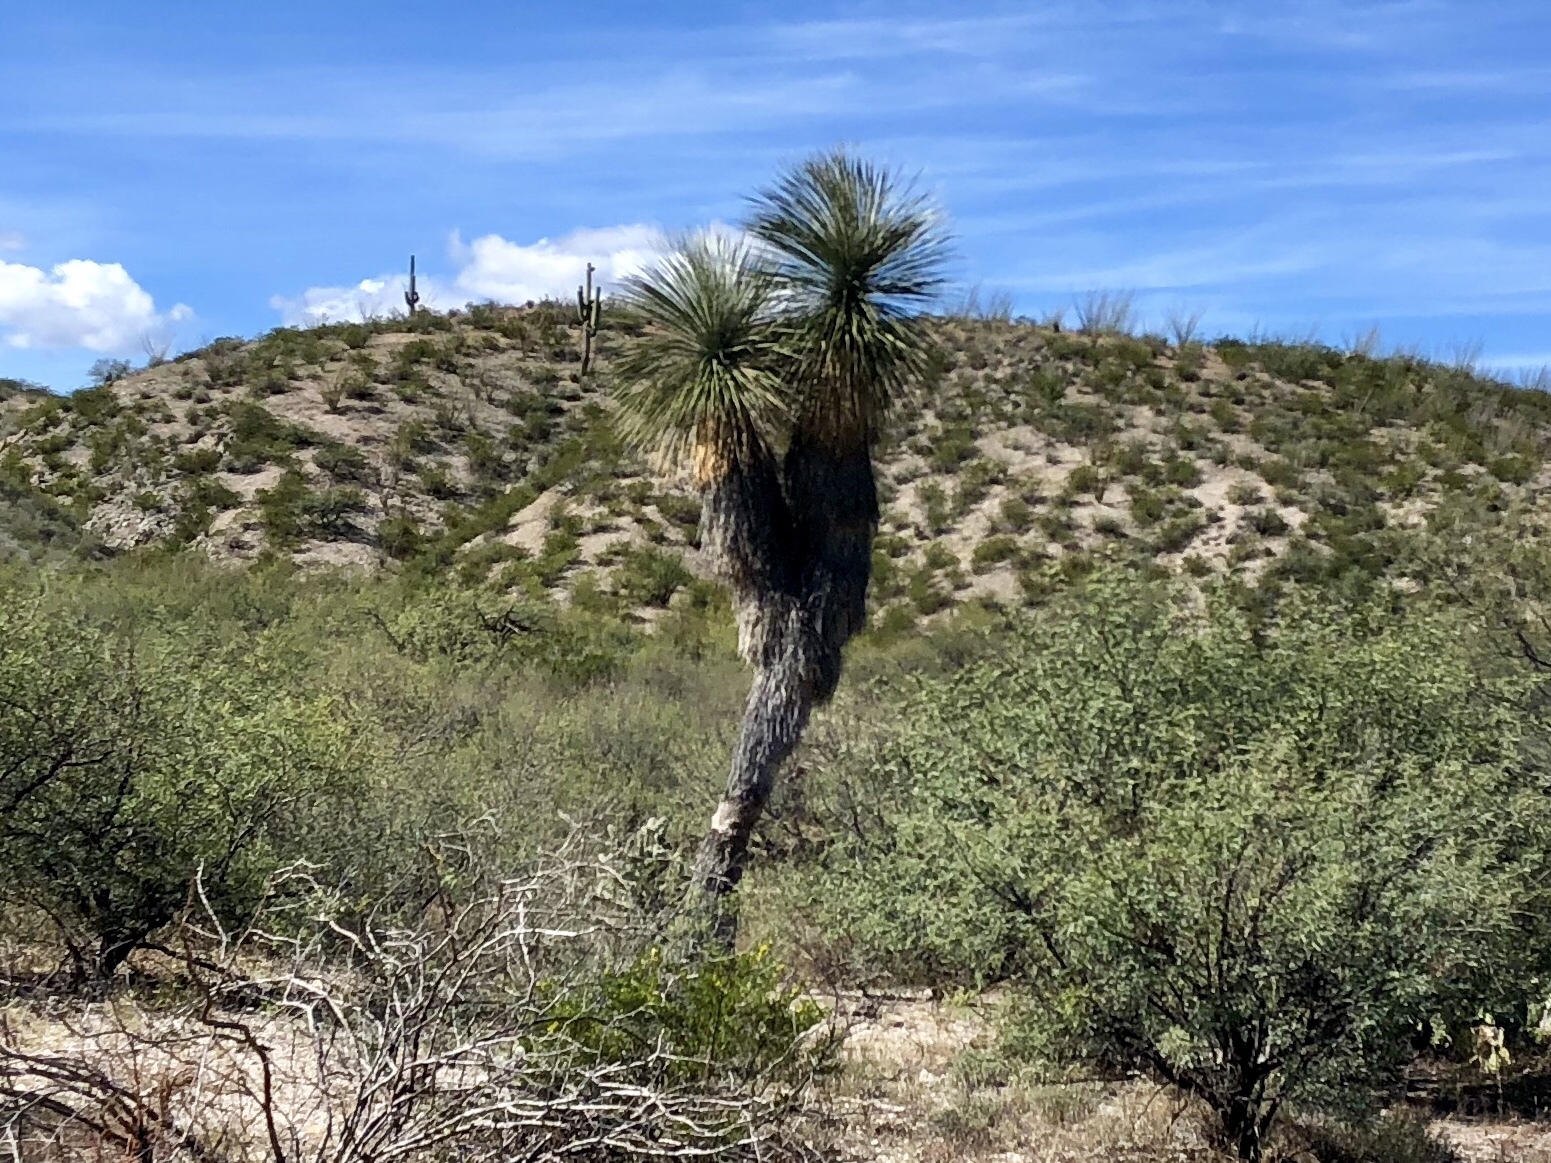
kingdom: Plantae
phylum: Tracheophyta
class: Liliopsida
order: Asparagales
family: Asparagaceae
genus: Yucca
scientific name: Yucca elata
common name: Palmella
